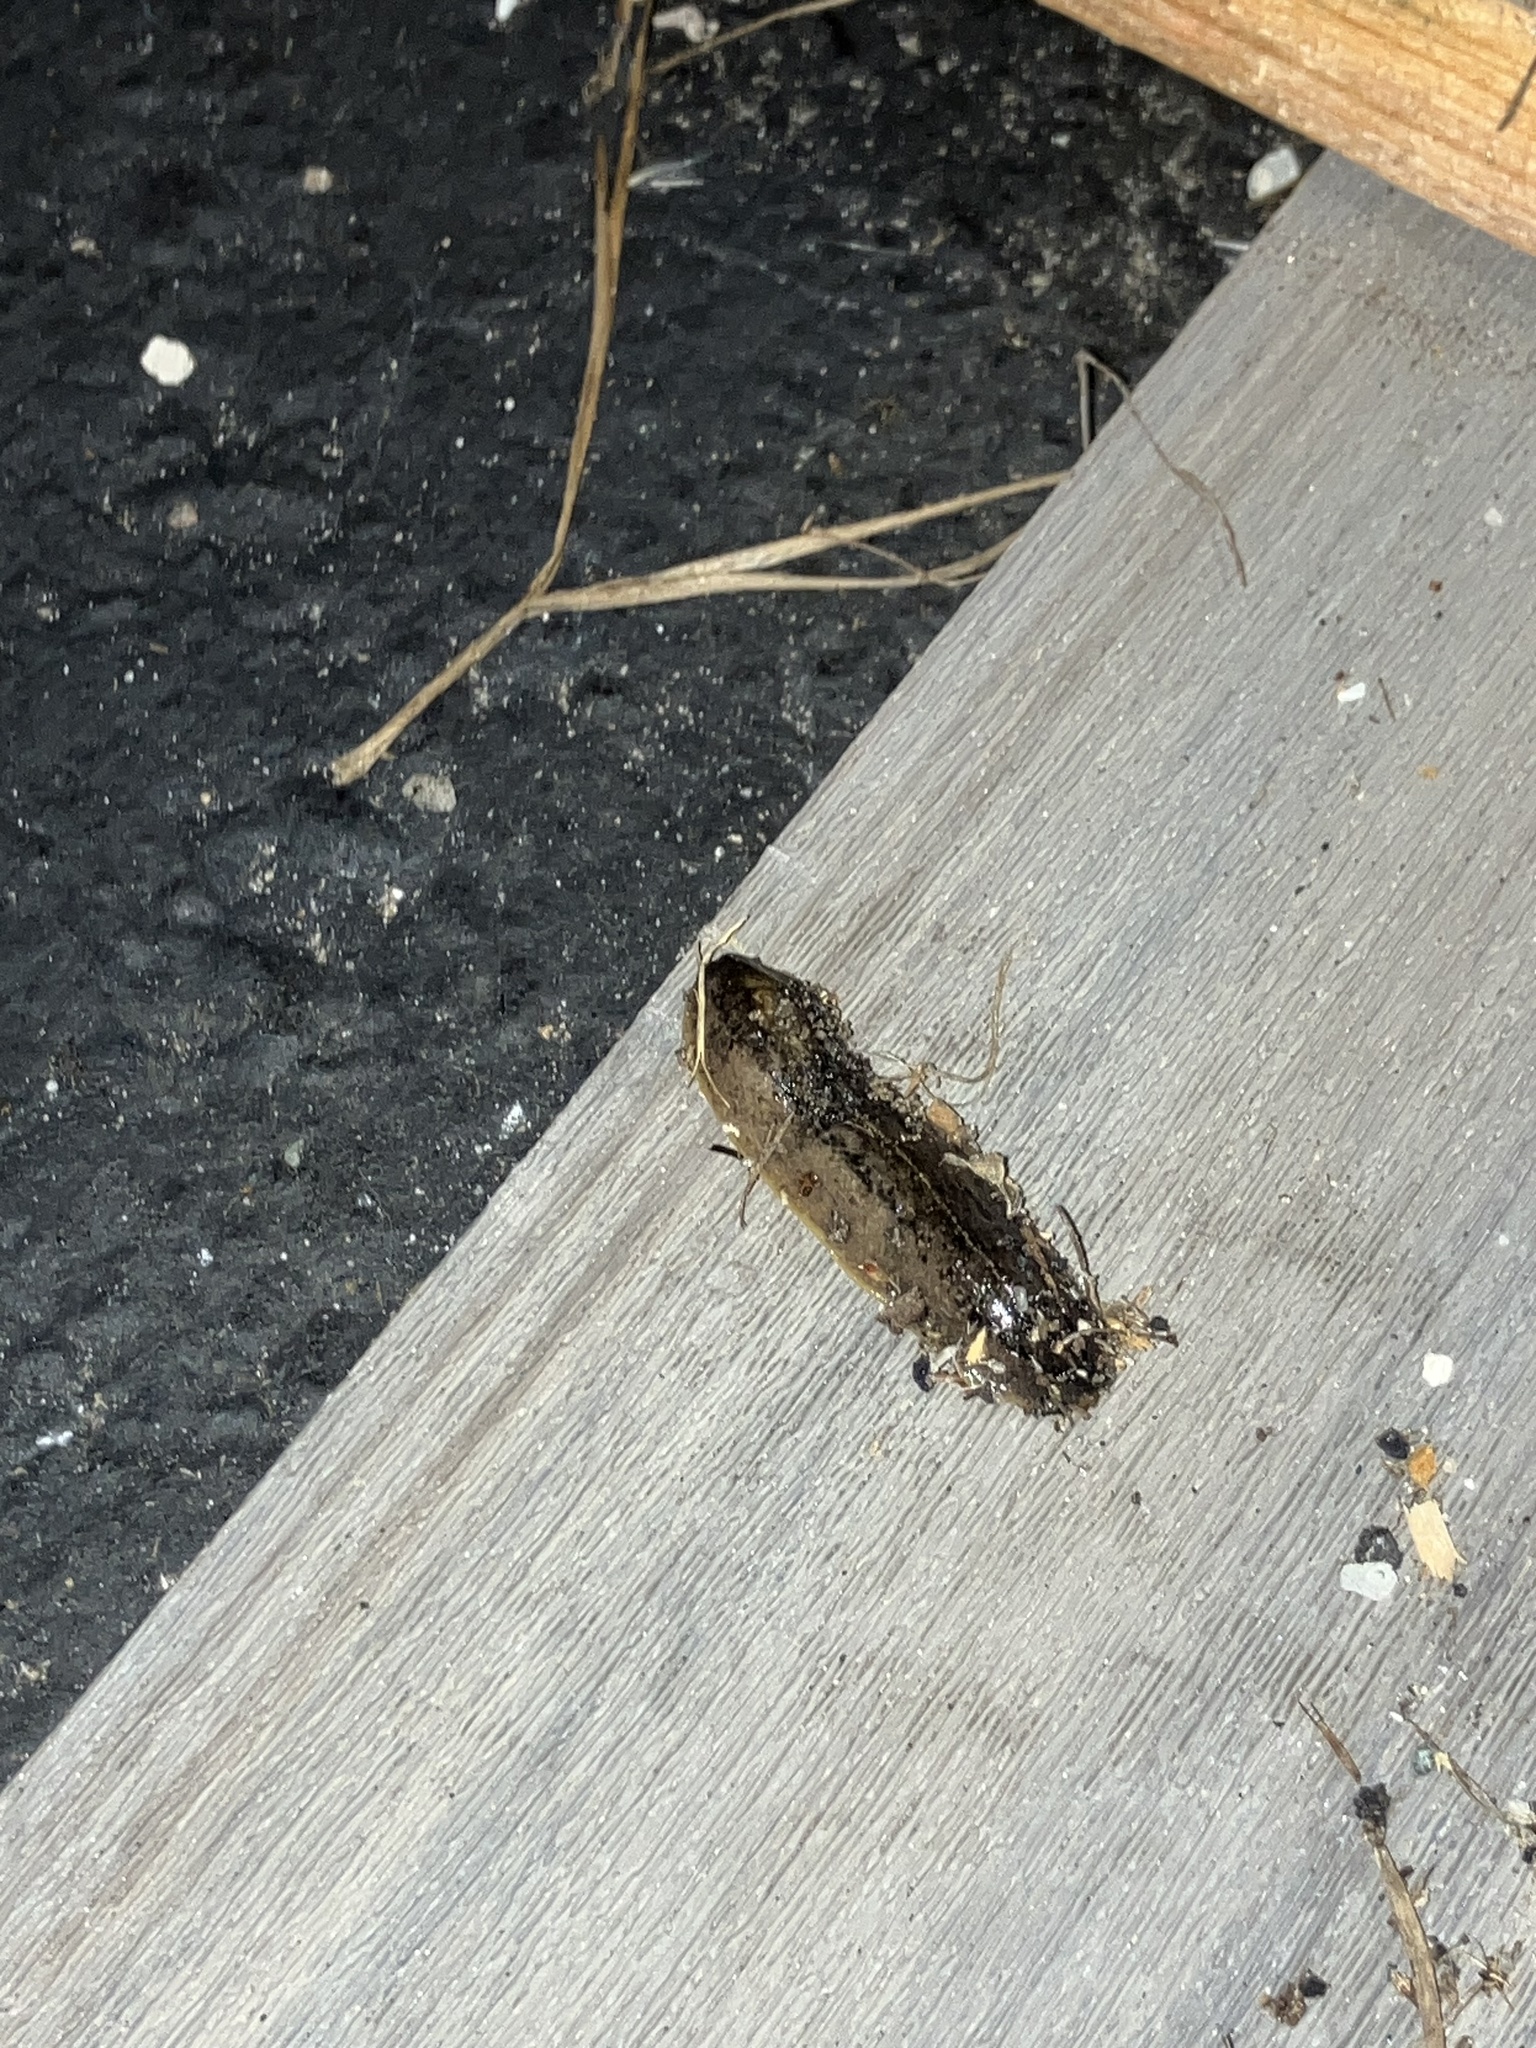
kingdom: Animalia
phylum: Mollusca
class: Gastropoda
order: Systellommatophora
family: Veronicellidae
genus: Leidyula
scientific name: Leidyula floridana
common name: Florida leatherleaf
